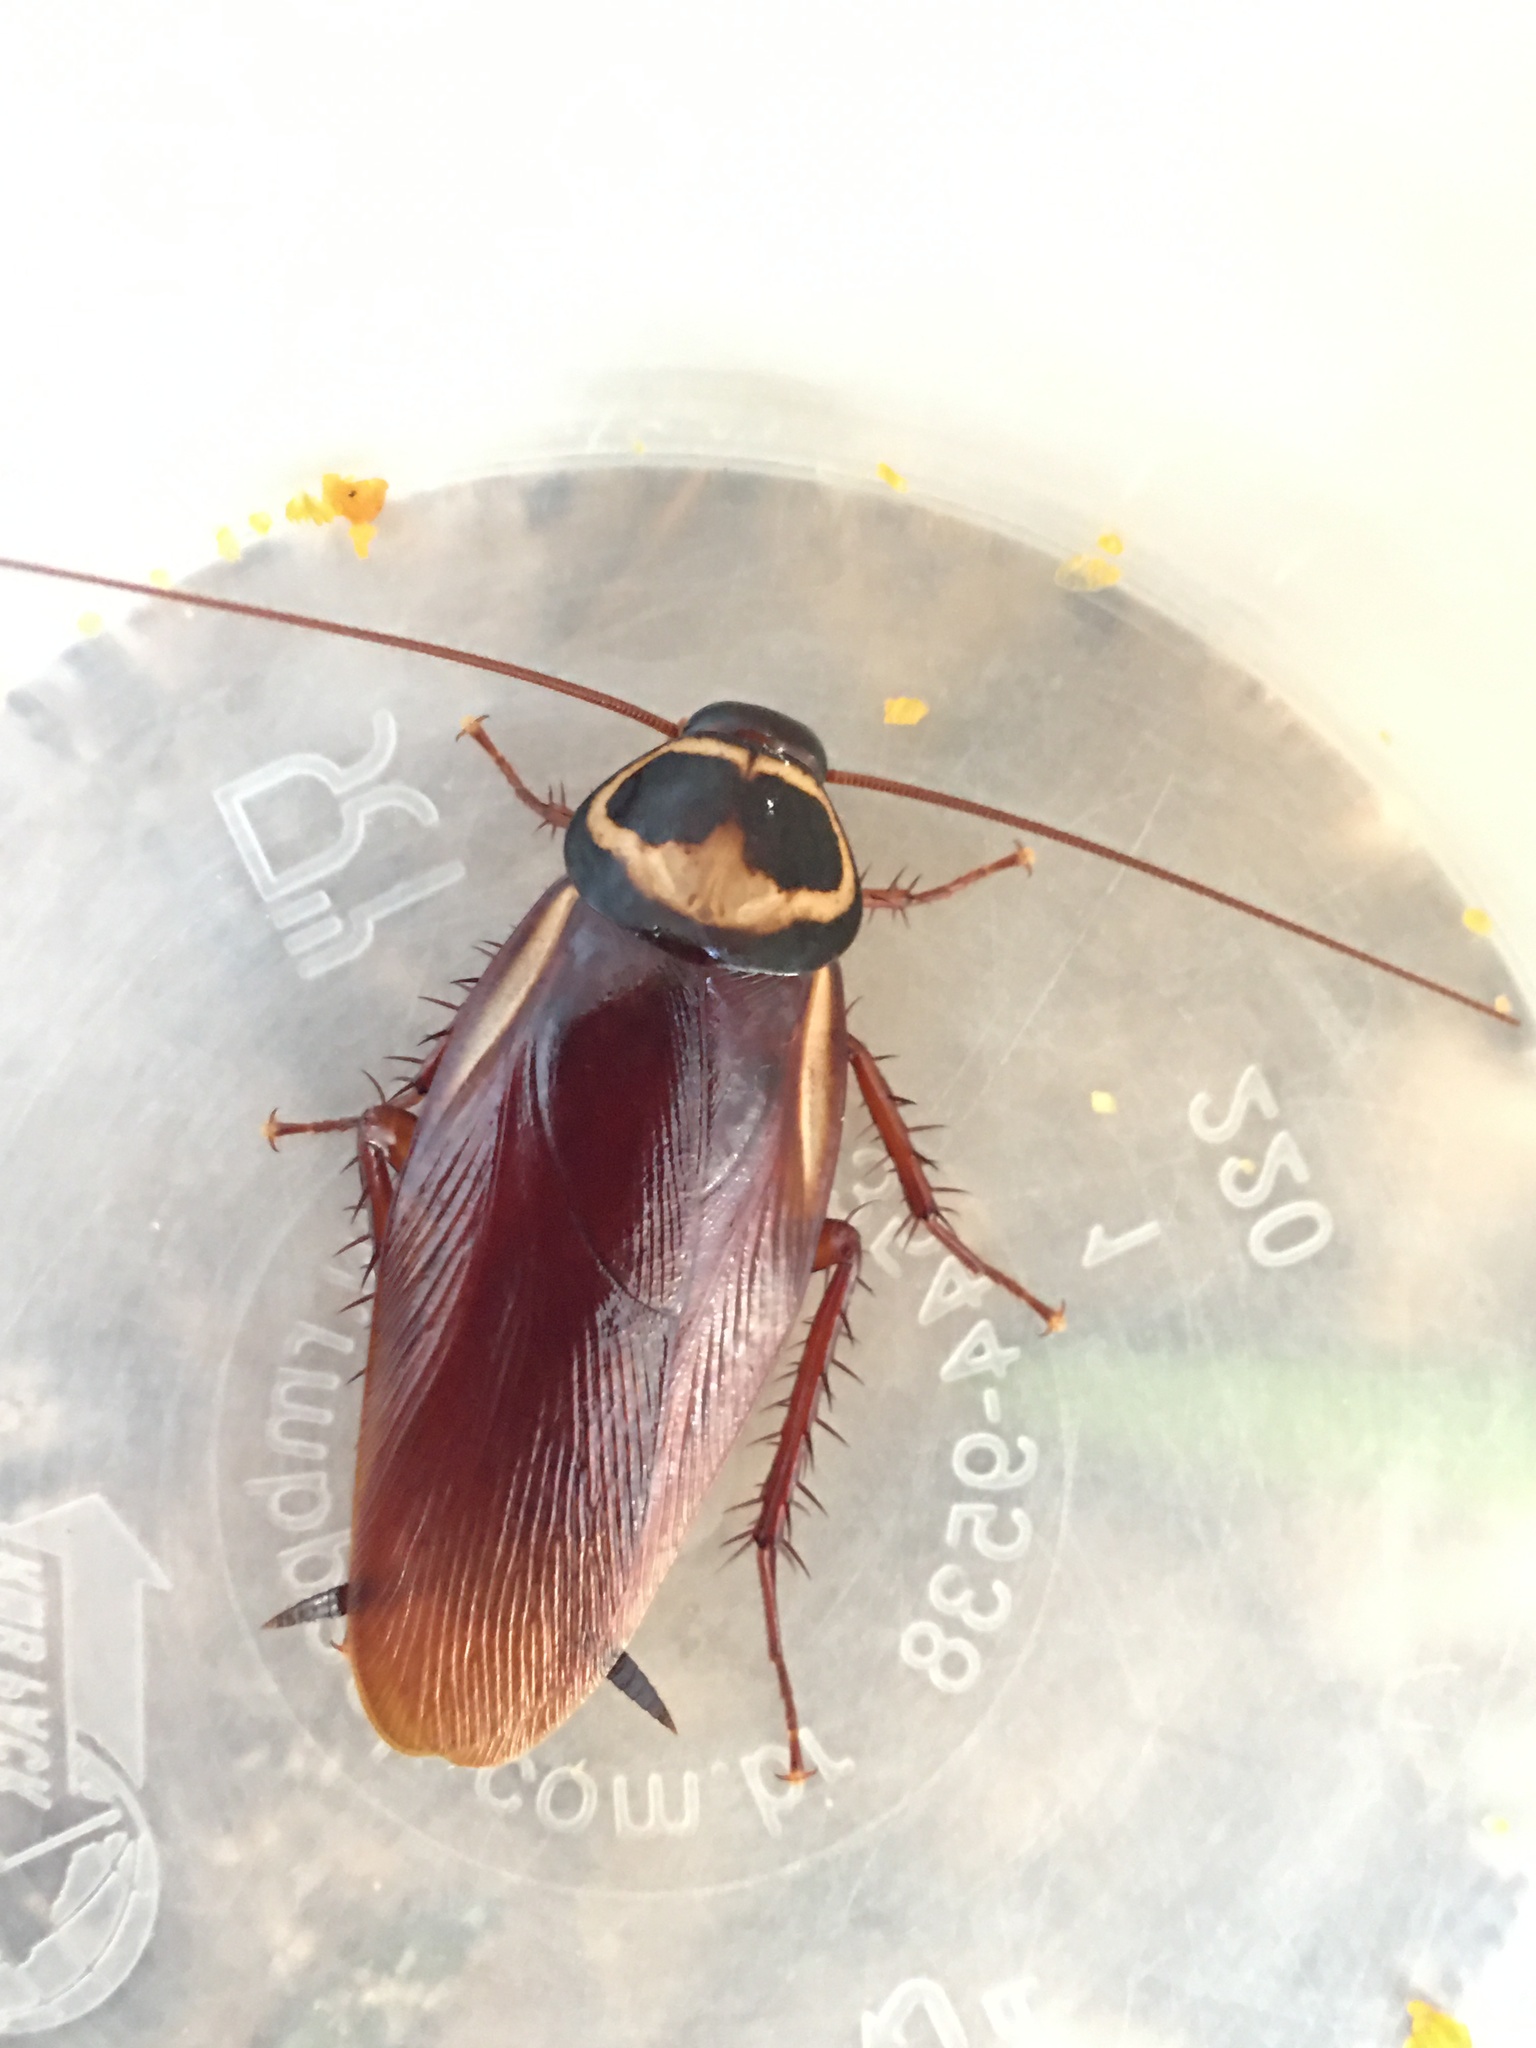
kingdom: Animalia
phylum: Arthropoda
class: Insecta
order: Blattodea
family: Blattidae
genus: Periplaneta
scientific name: Periplaneta australasiae
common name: Australian cockroach
